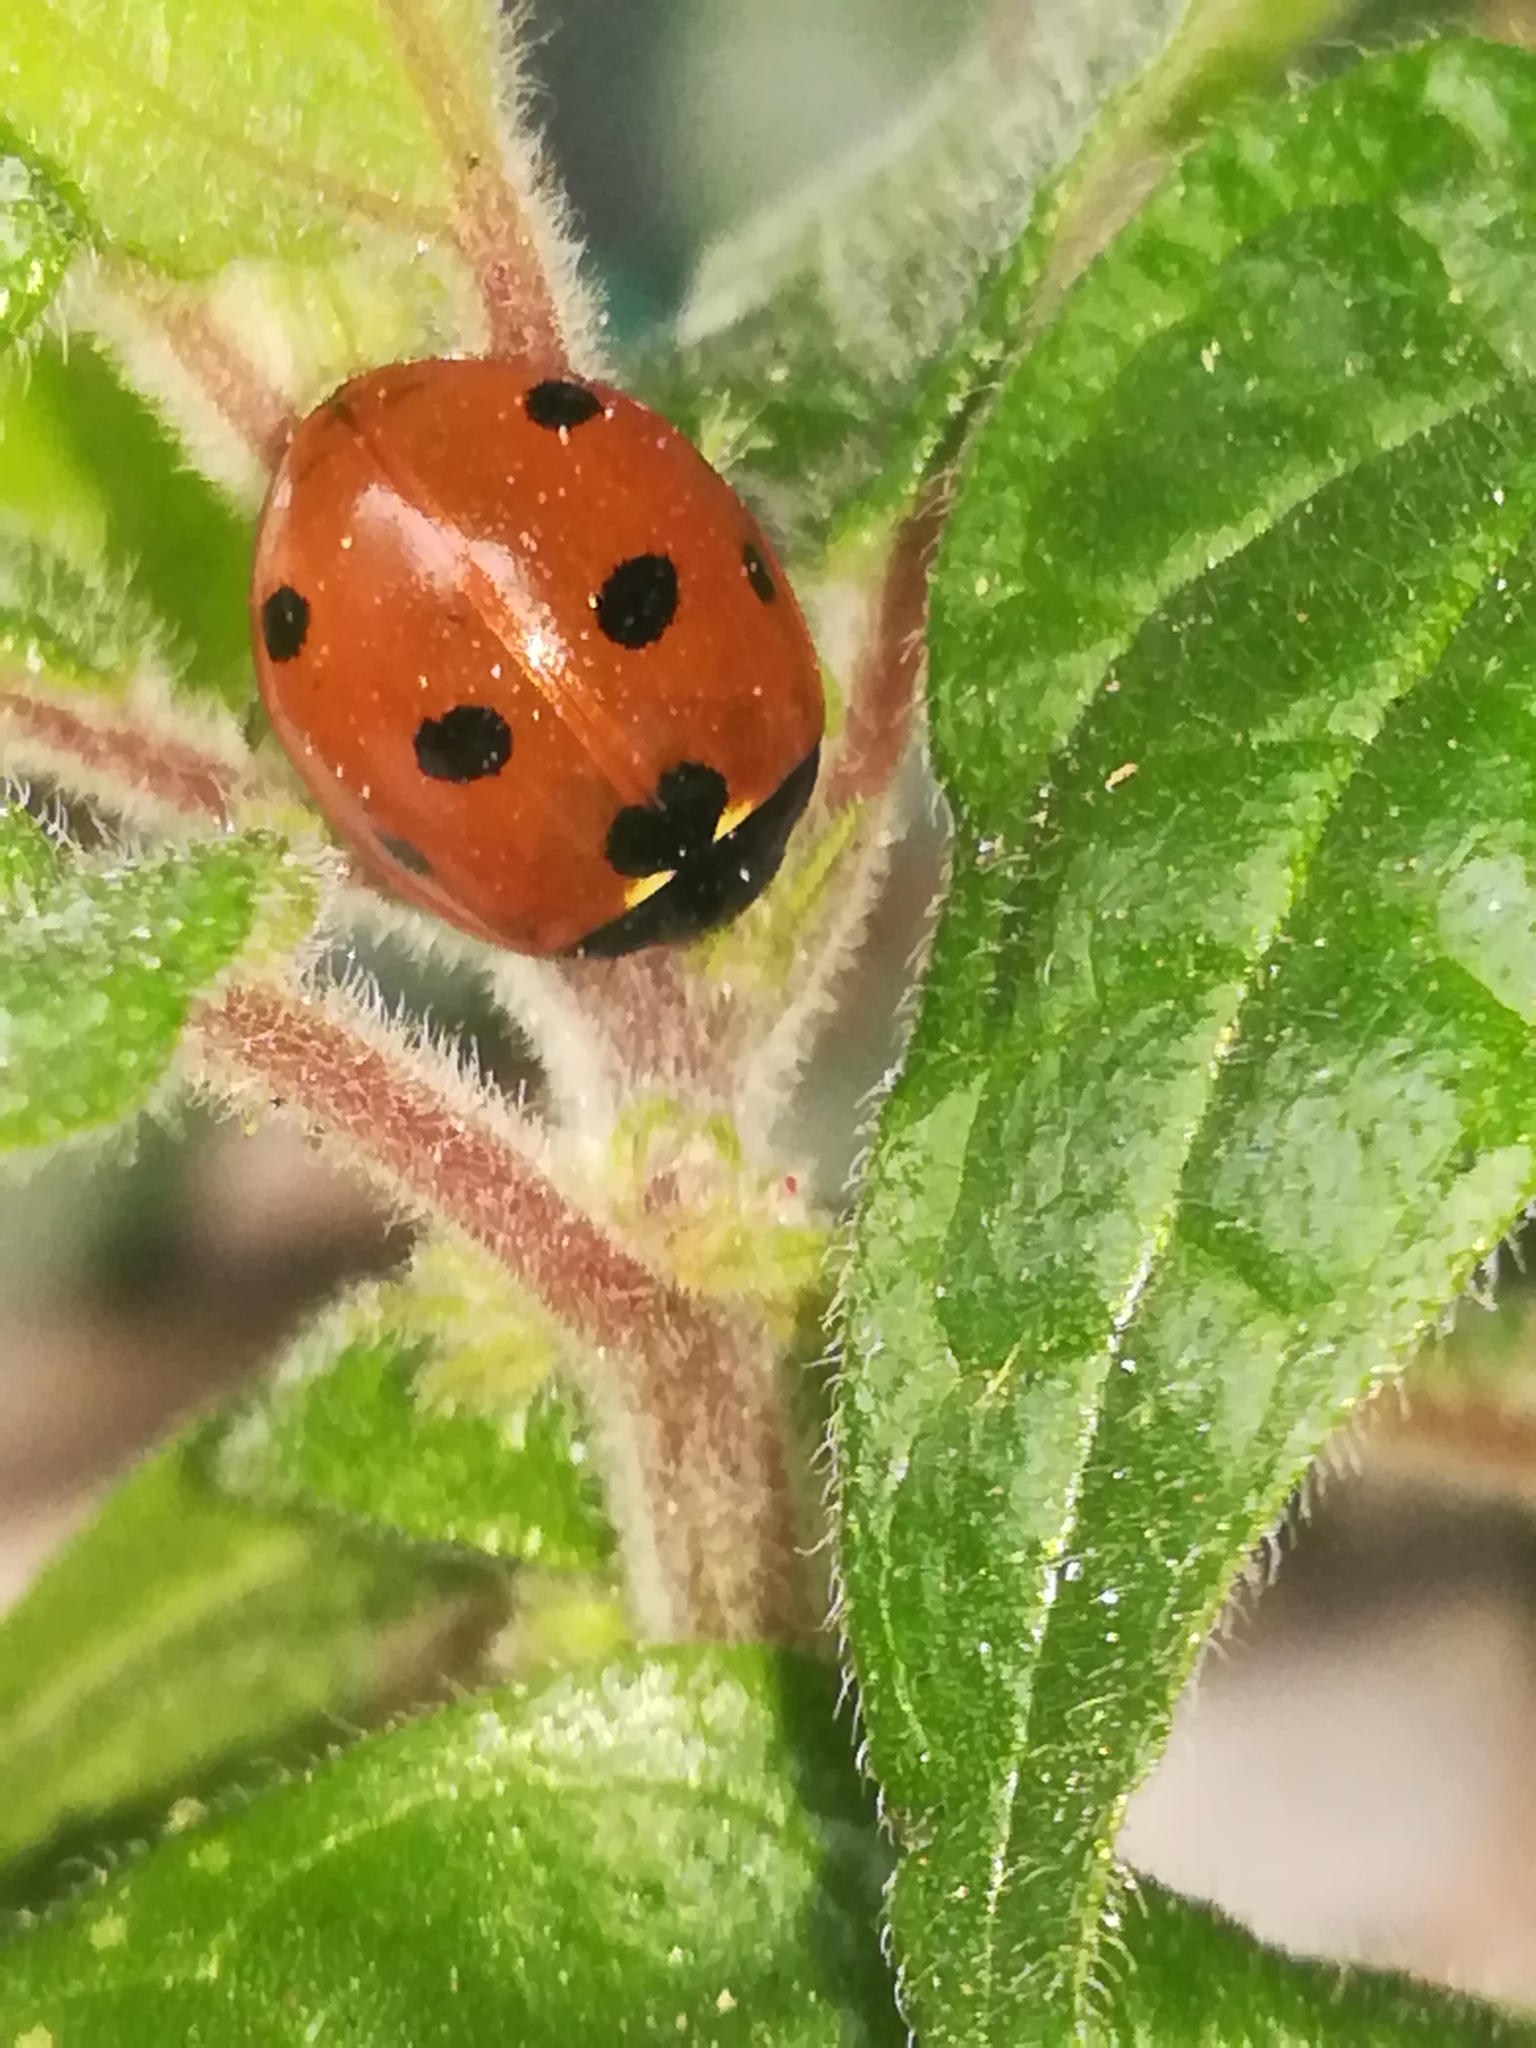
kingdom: Animalia
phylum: Arthropoda
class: Insecta
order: Coleoptera
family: Coccinellidae
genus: Coccinella
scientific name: Coccinella septempunctata
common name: Sevenspotted lady beetle
